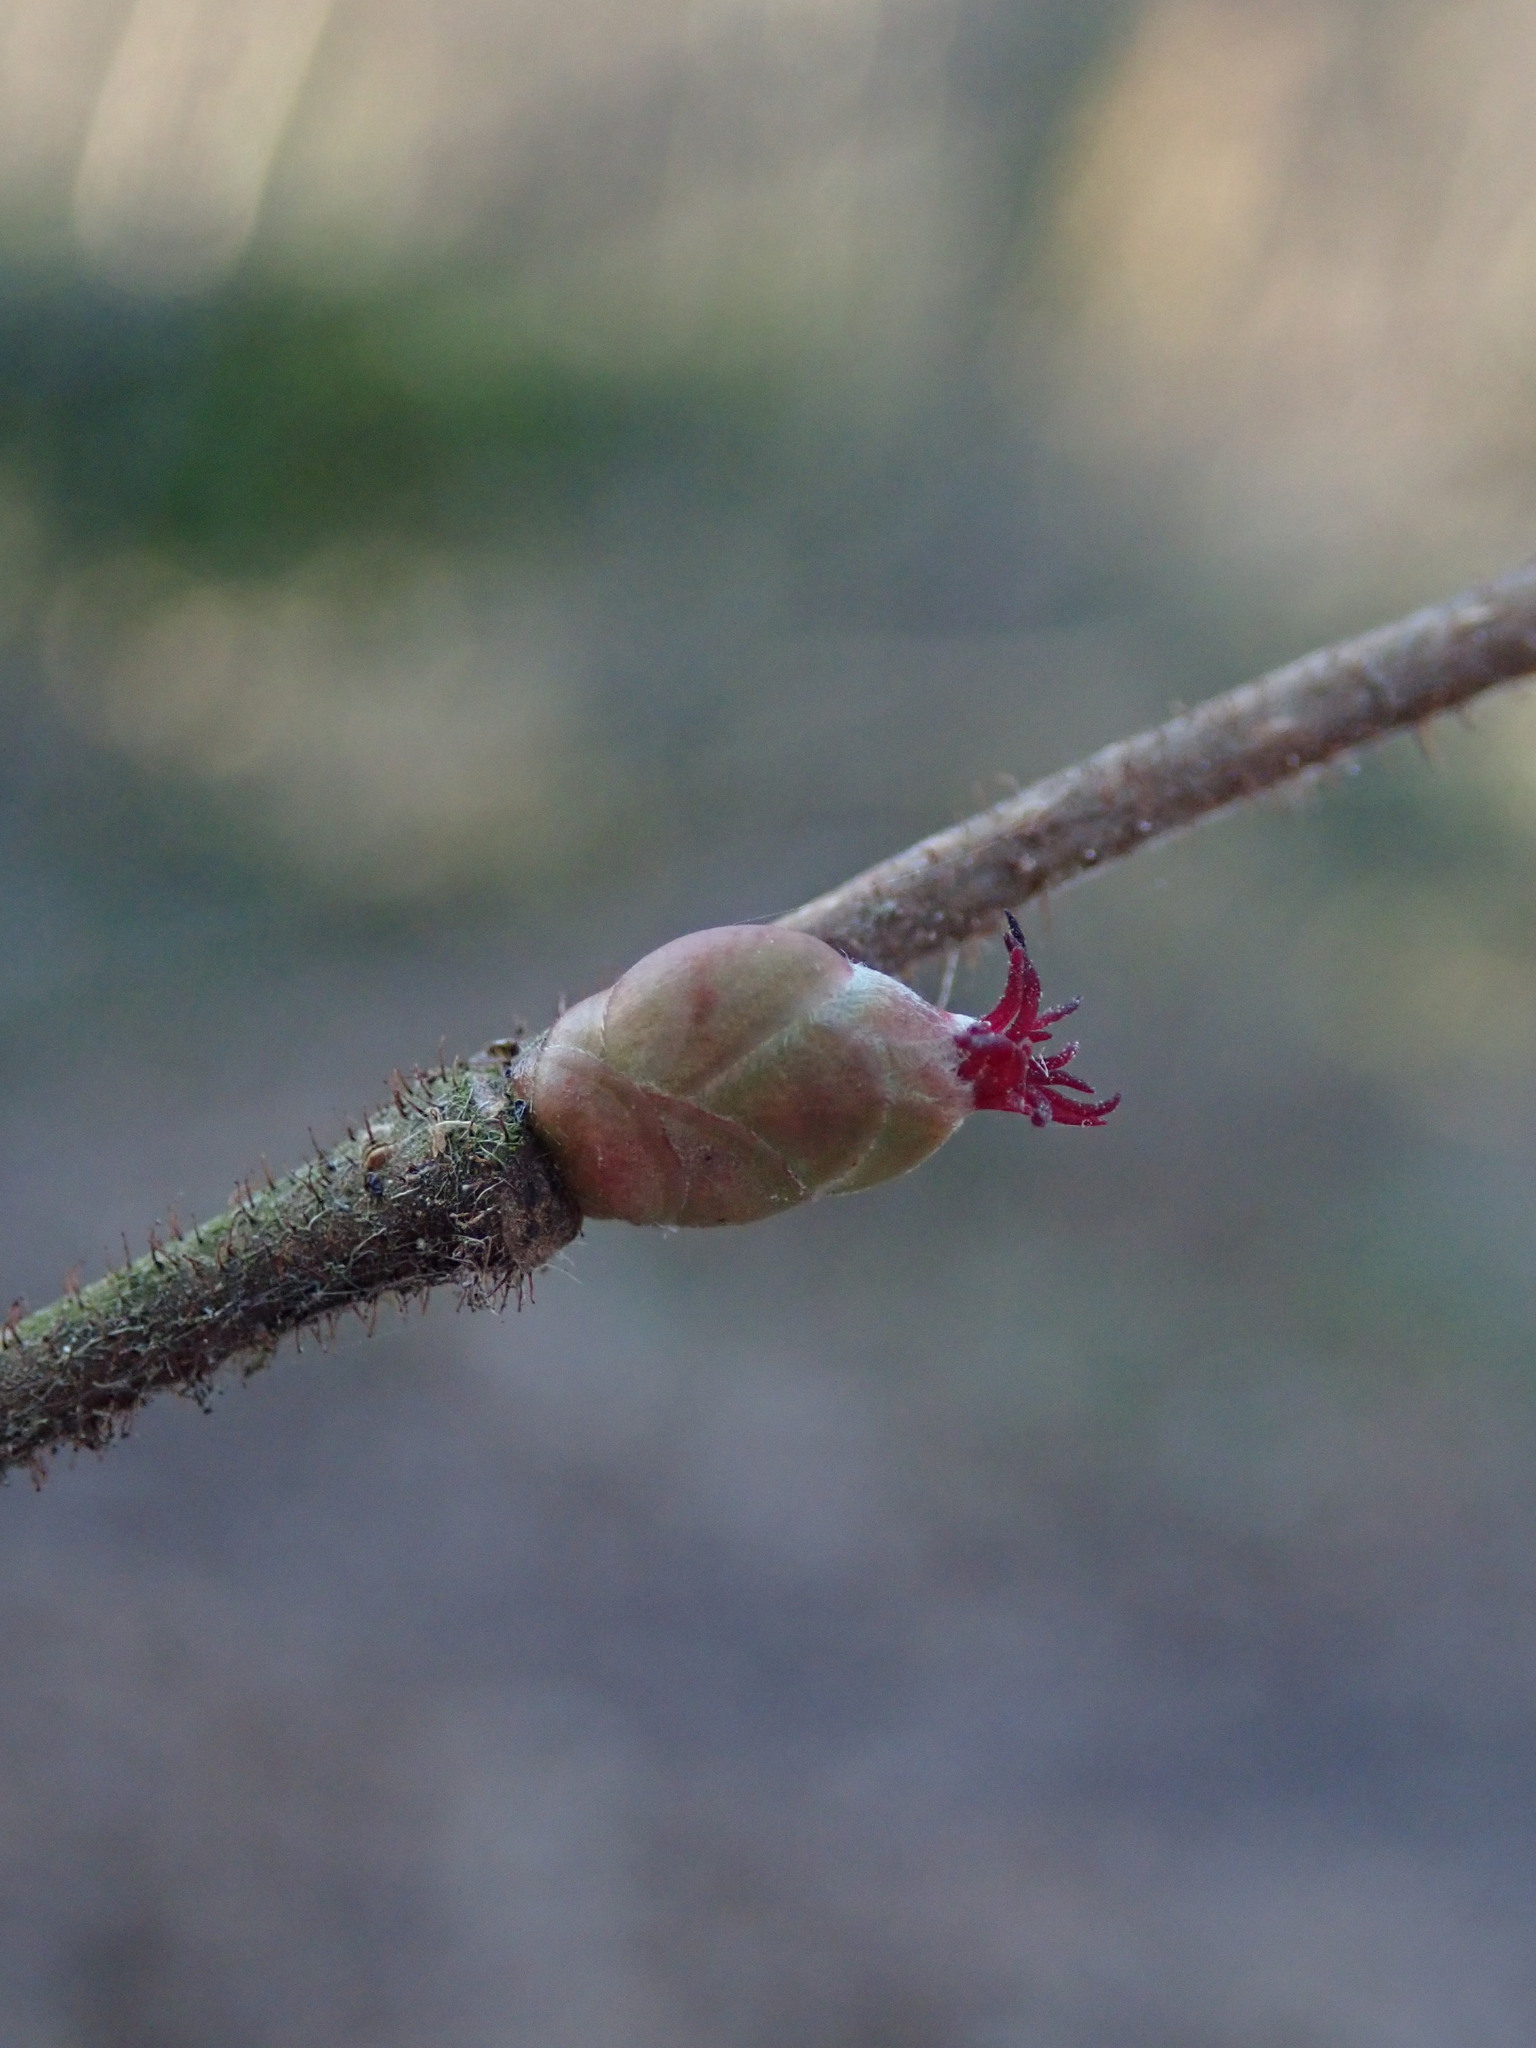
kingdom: Plantae
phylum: Tracheophyta
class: Magnoliopsida
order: Fagales
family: Betulaceae
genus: Corylus
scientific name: Corylus avellana
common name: European hazel
